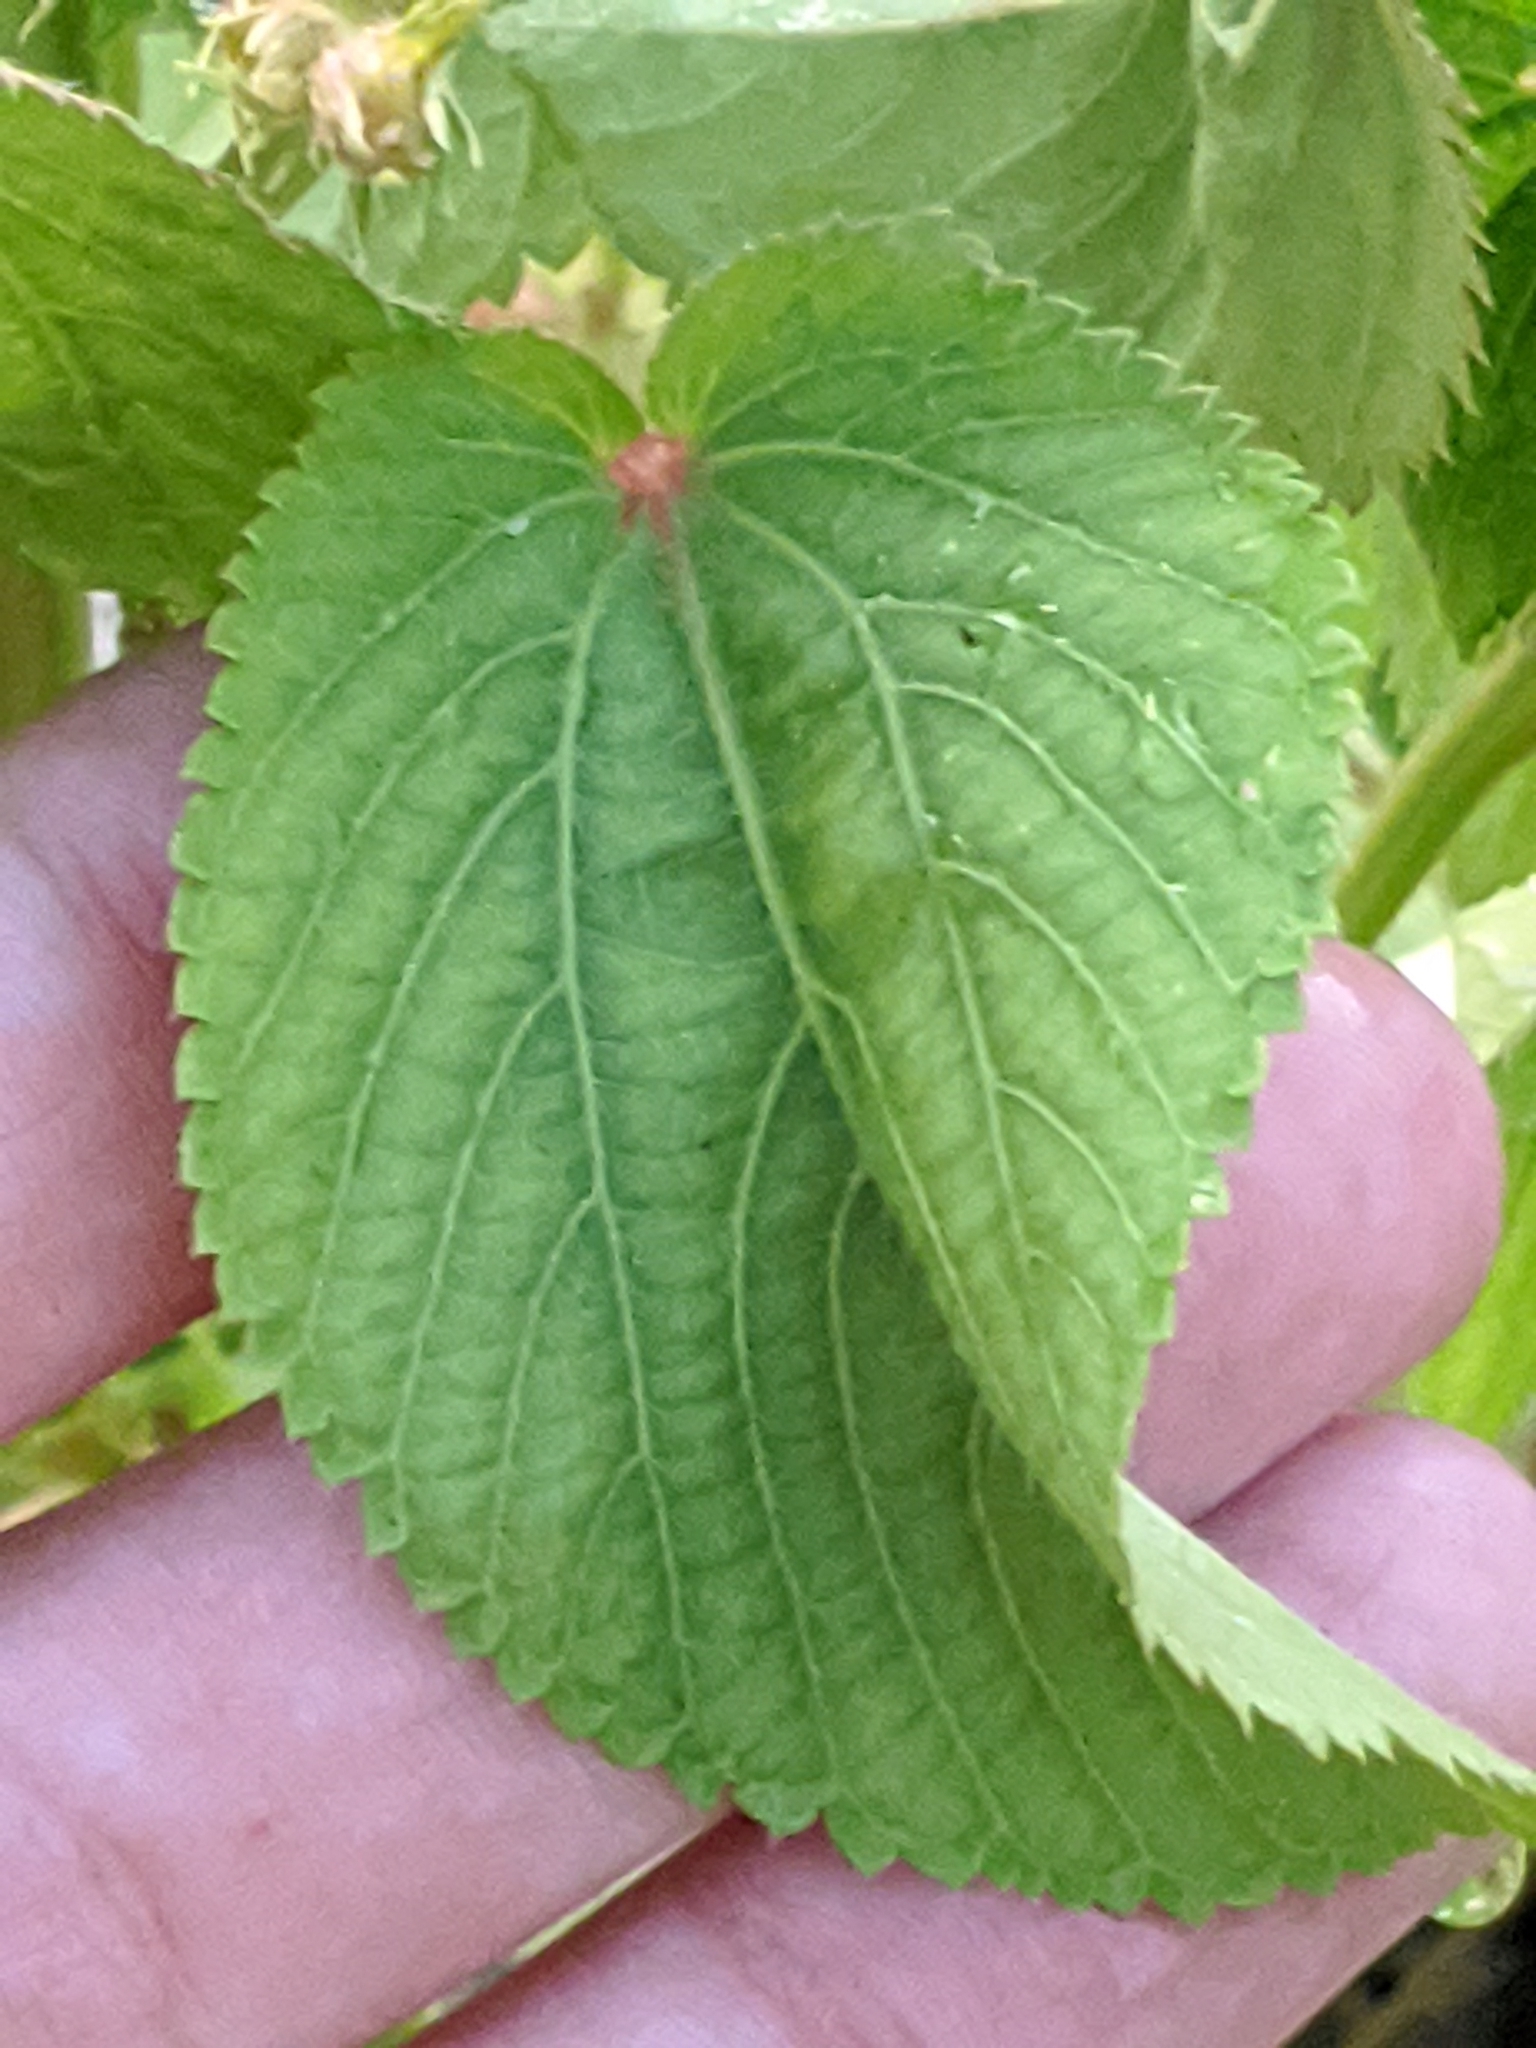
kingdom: Plantae
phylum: Tracheophyta
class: Magnoliopsida
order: Malpighiales
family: Euphorbiaceae
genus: Acalypha
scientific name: Acalypha ostryifolia
